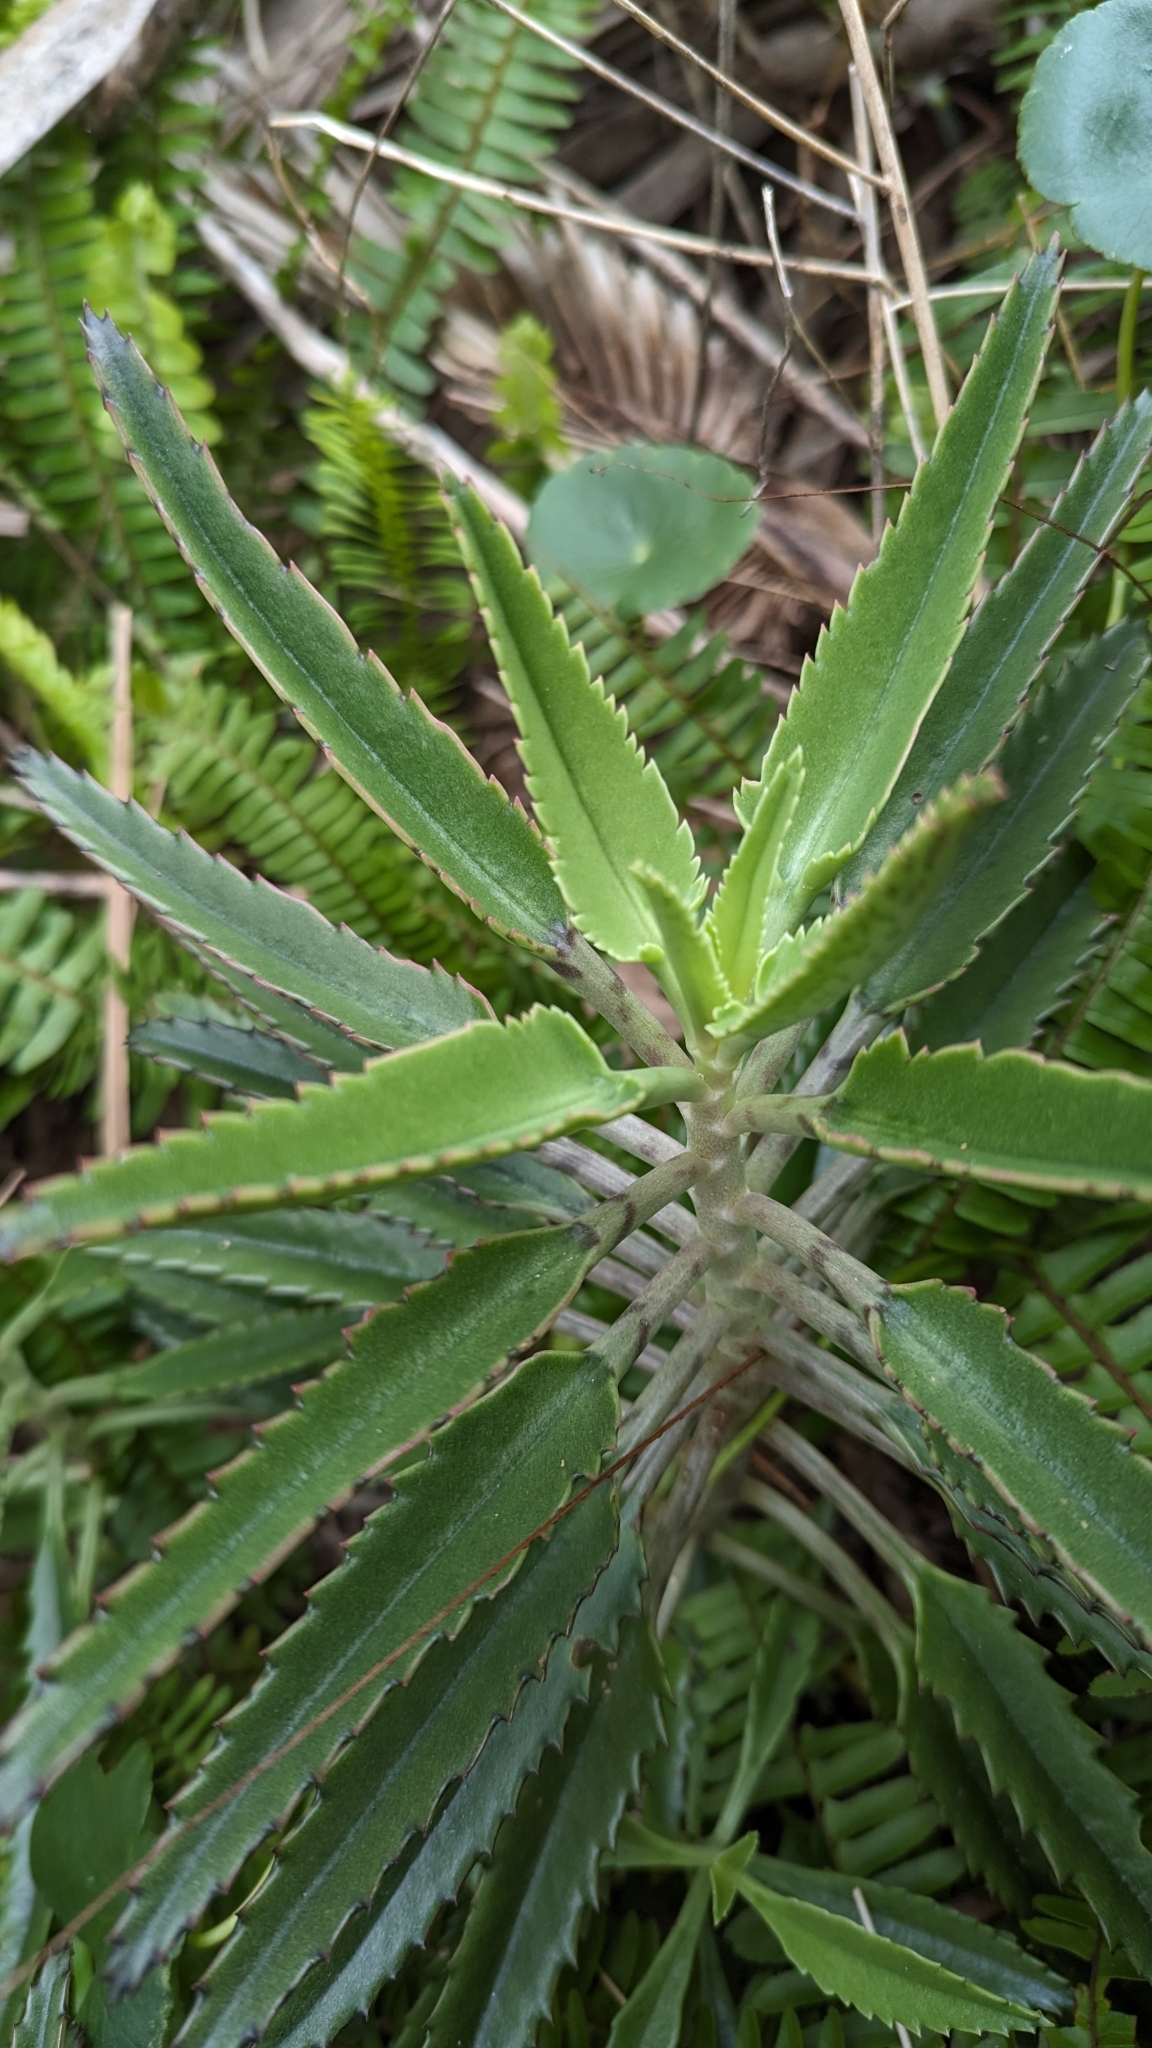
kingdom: Plantae
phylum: Tracheophyta
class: Magnoliopsida
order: Saxifragales
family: Crassulaceae
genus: Kalanchoe
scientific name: Kalanchoe houghtonii
